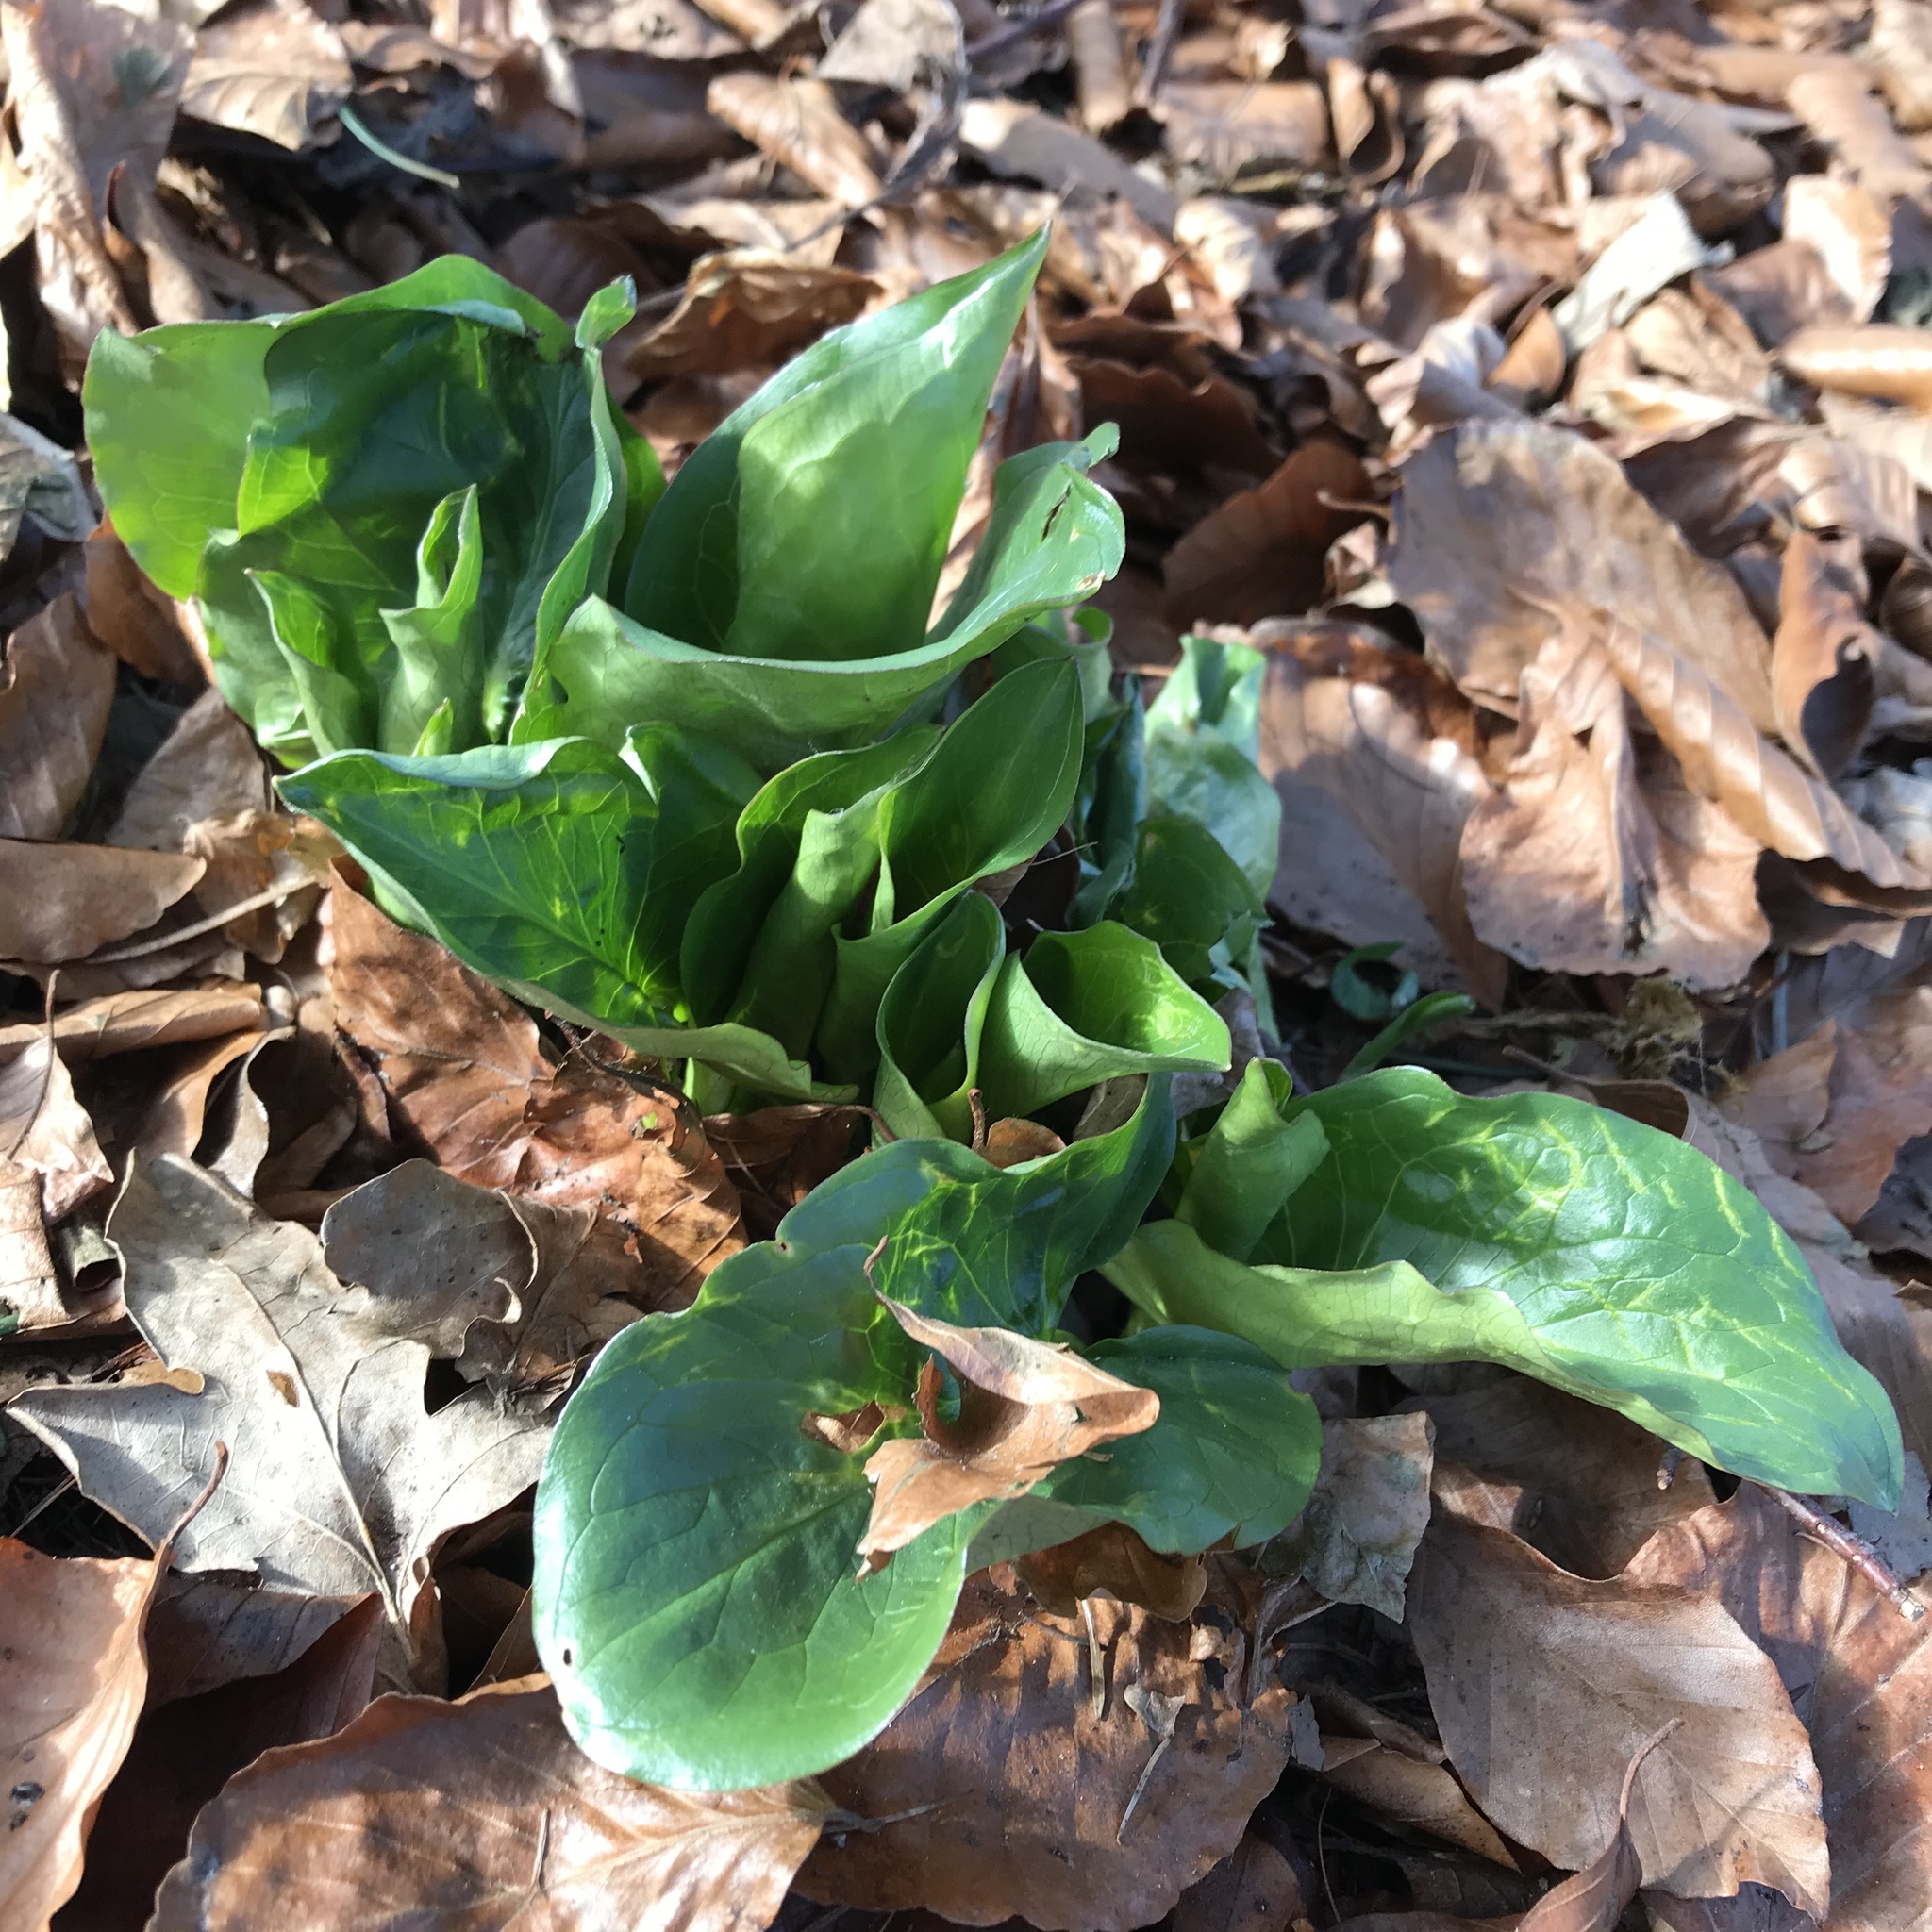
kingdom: Plantae
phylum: Tracheophyta
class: Liliopsida
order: Alismatales
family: Araceae
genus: Arum
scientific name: Arum maculatum
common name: Lords-and-ladies
